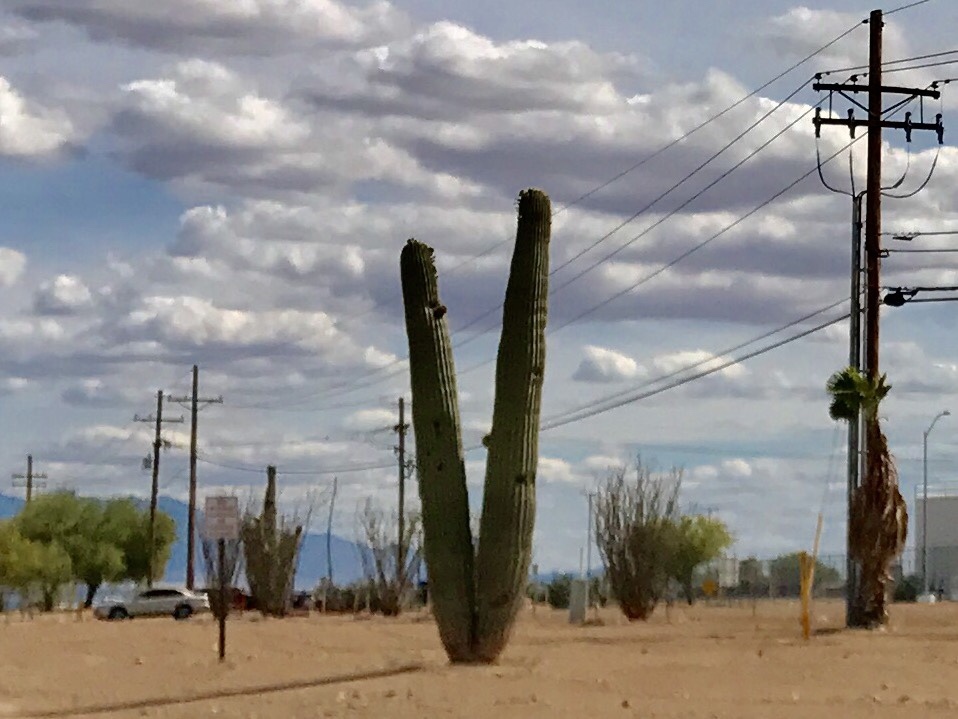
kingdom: Plantae
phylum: Tracheophyta
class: Magnoliopsida
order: Caryophyllales
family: Cactaceae
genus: Carnegiea
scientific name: Carnegiea gigantea
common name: Saguaro
